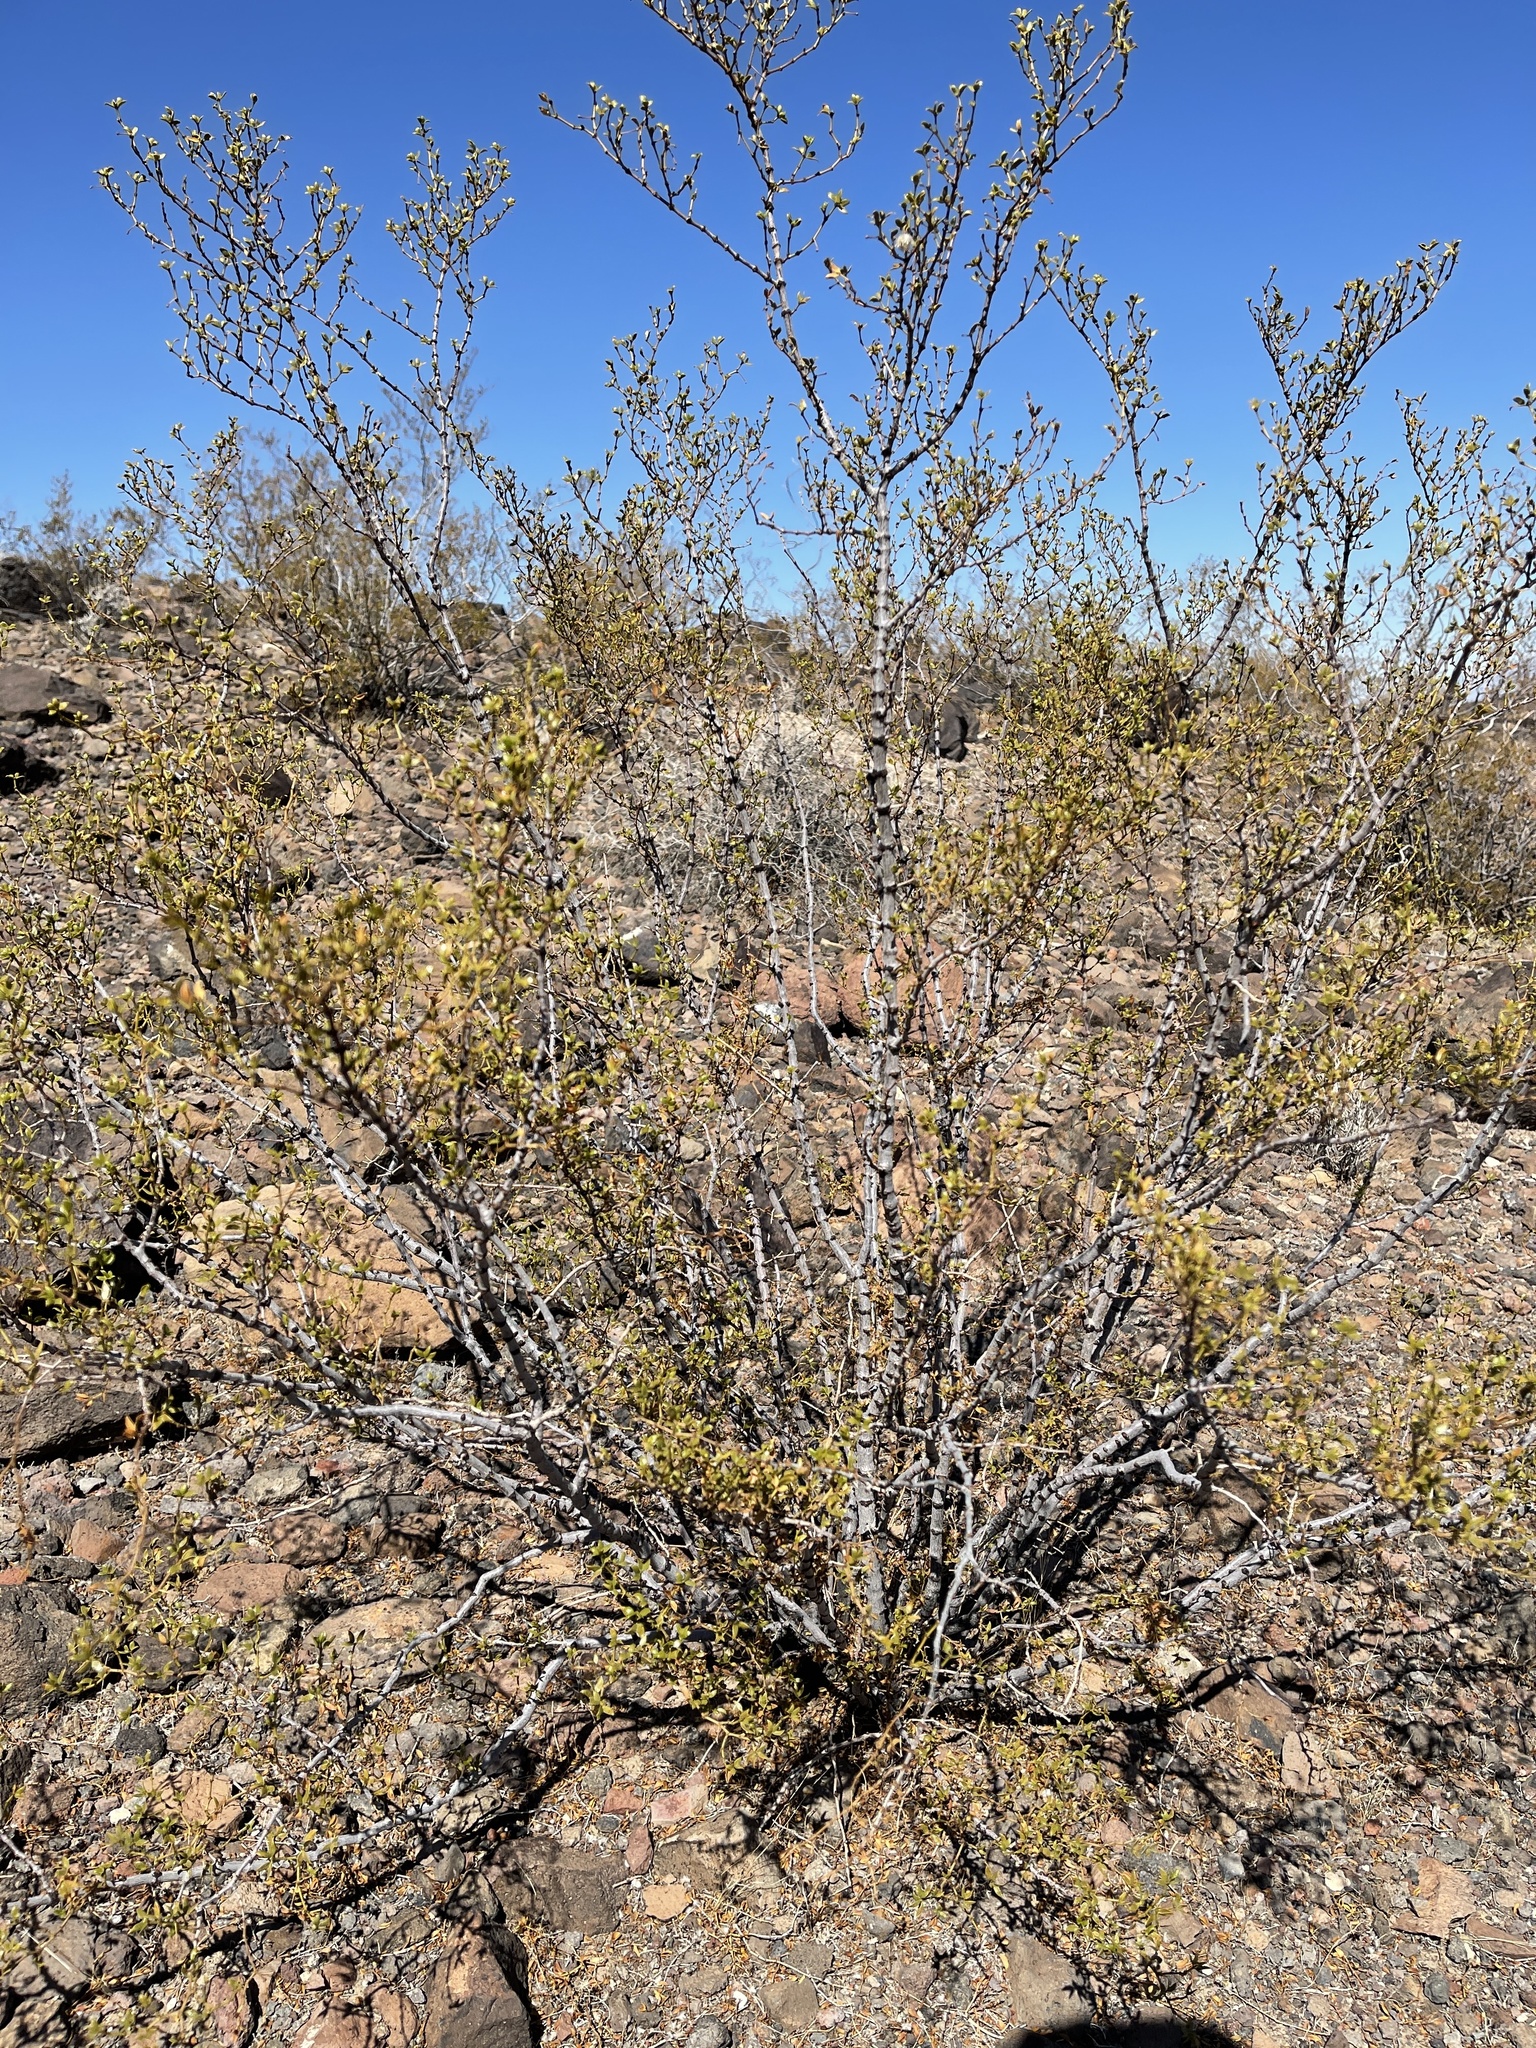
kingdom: Plantae
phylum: Tracheophyta
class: Magnoliopsida
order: Zygophyllales
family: Zygophyllaceae
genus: Larrea
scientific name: Larrea tridentata
